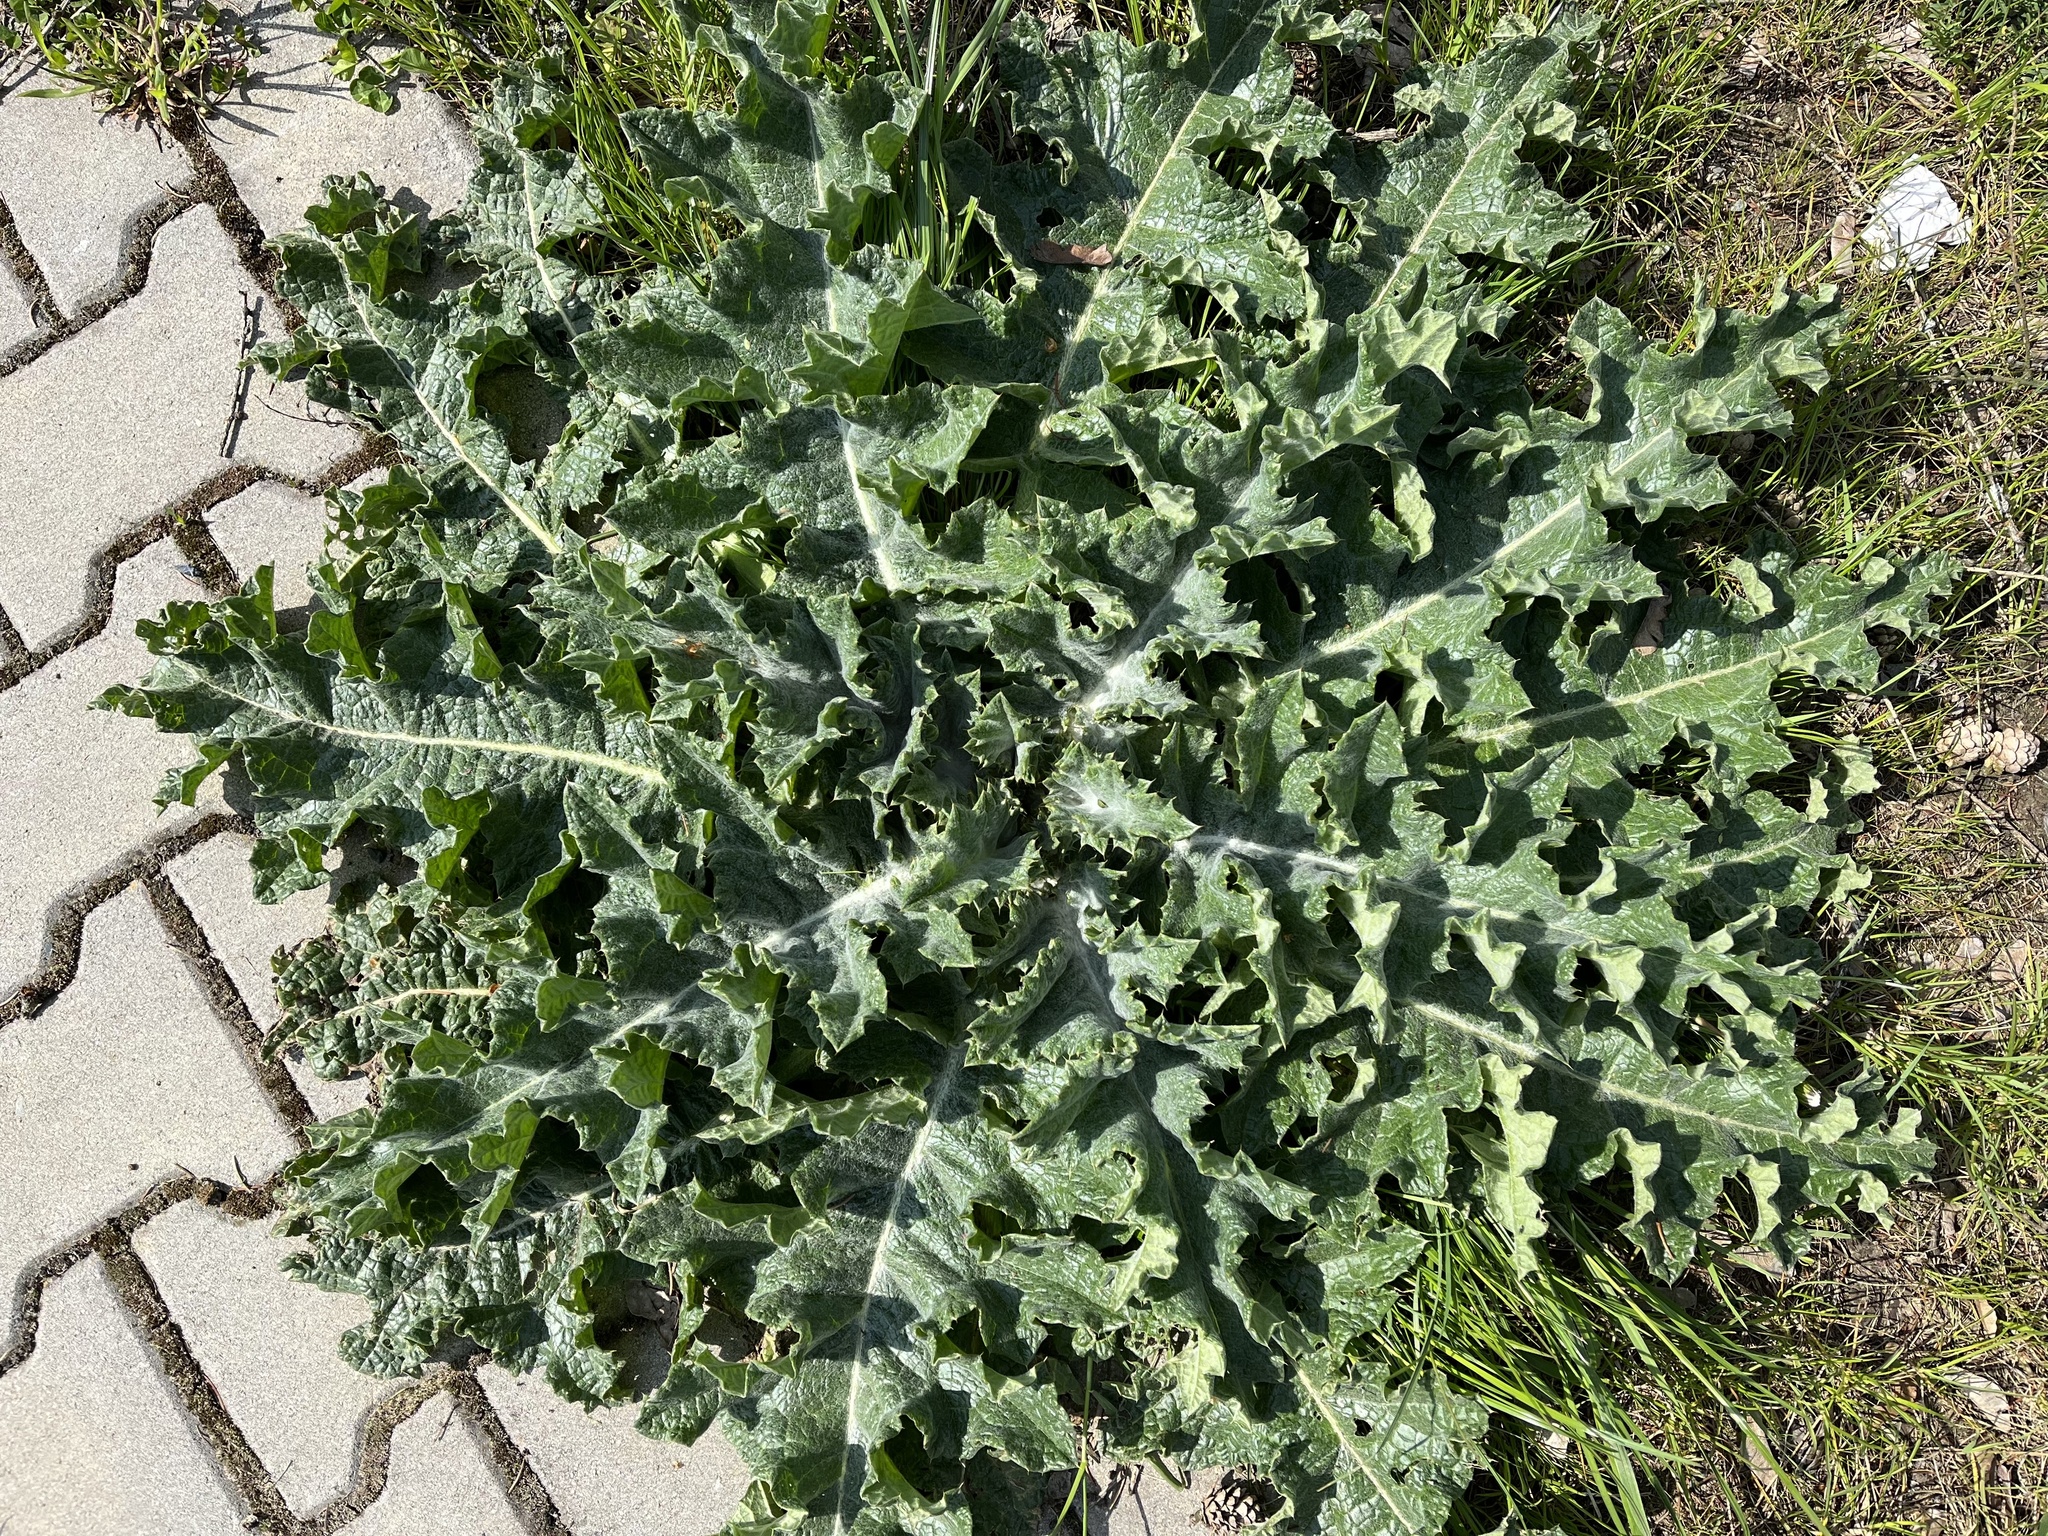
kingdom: Plantae
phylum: Tracheophyta
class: Magnoliopsida
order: Asterales
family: Asteraceae
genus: Onopordum
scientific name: Onopordum acanthium
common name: Scotch thistle
